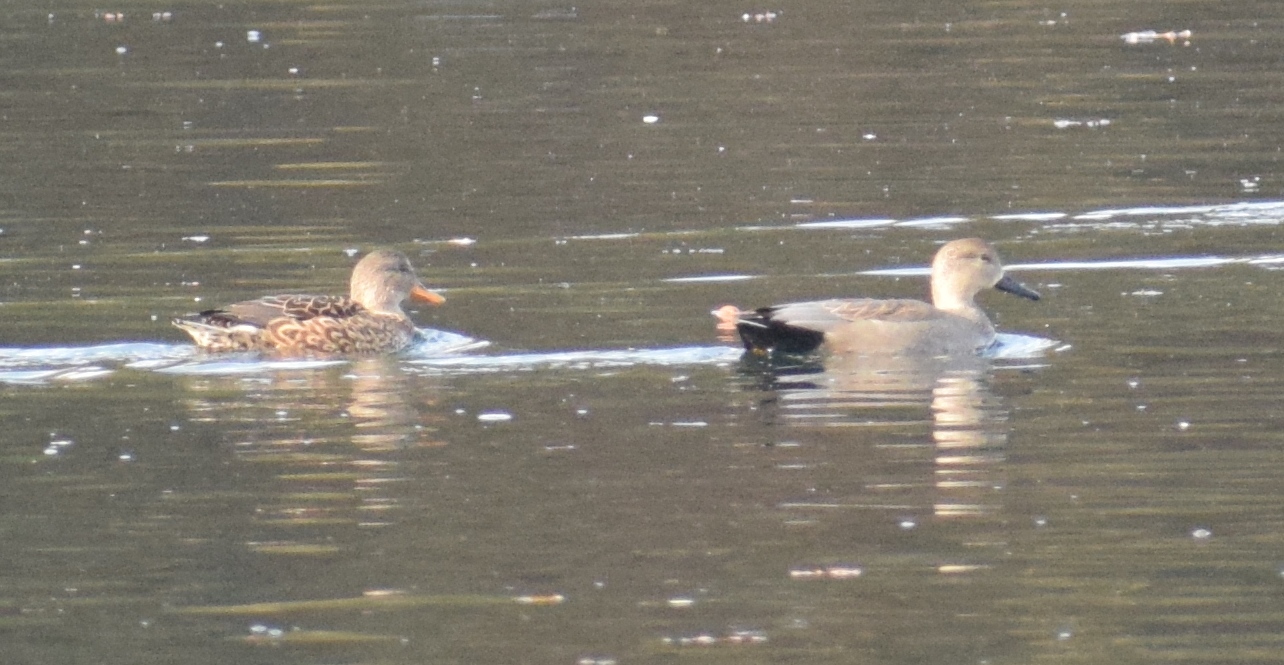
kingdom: Animalia
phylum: Chordata
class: Aves
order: Anseriformes
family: Anatidae
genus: Mareca
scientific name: Mareca strepera
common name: Gadwall
